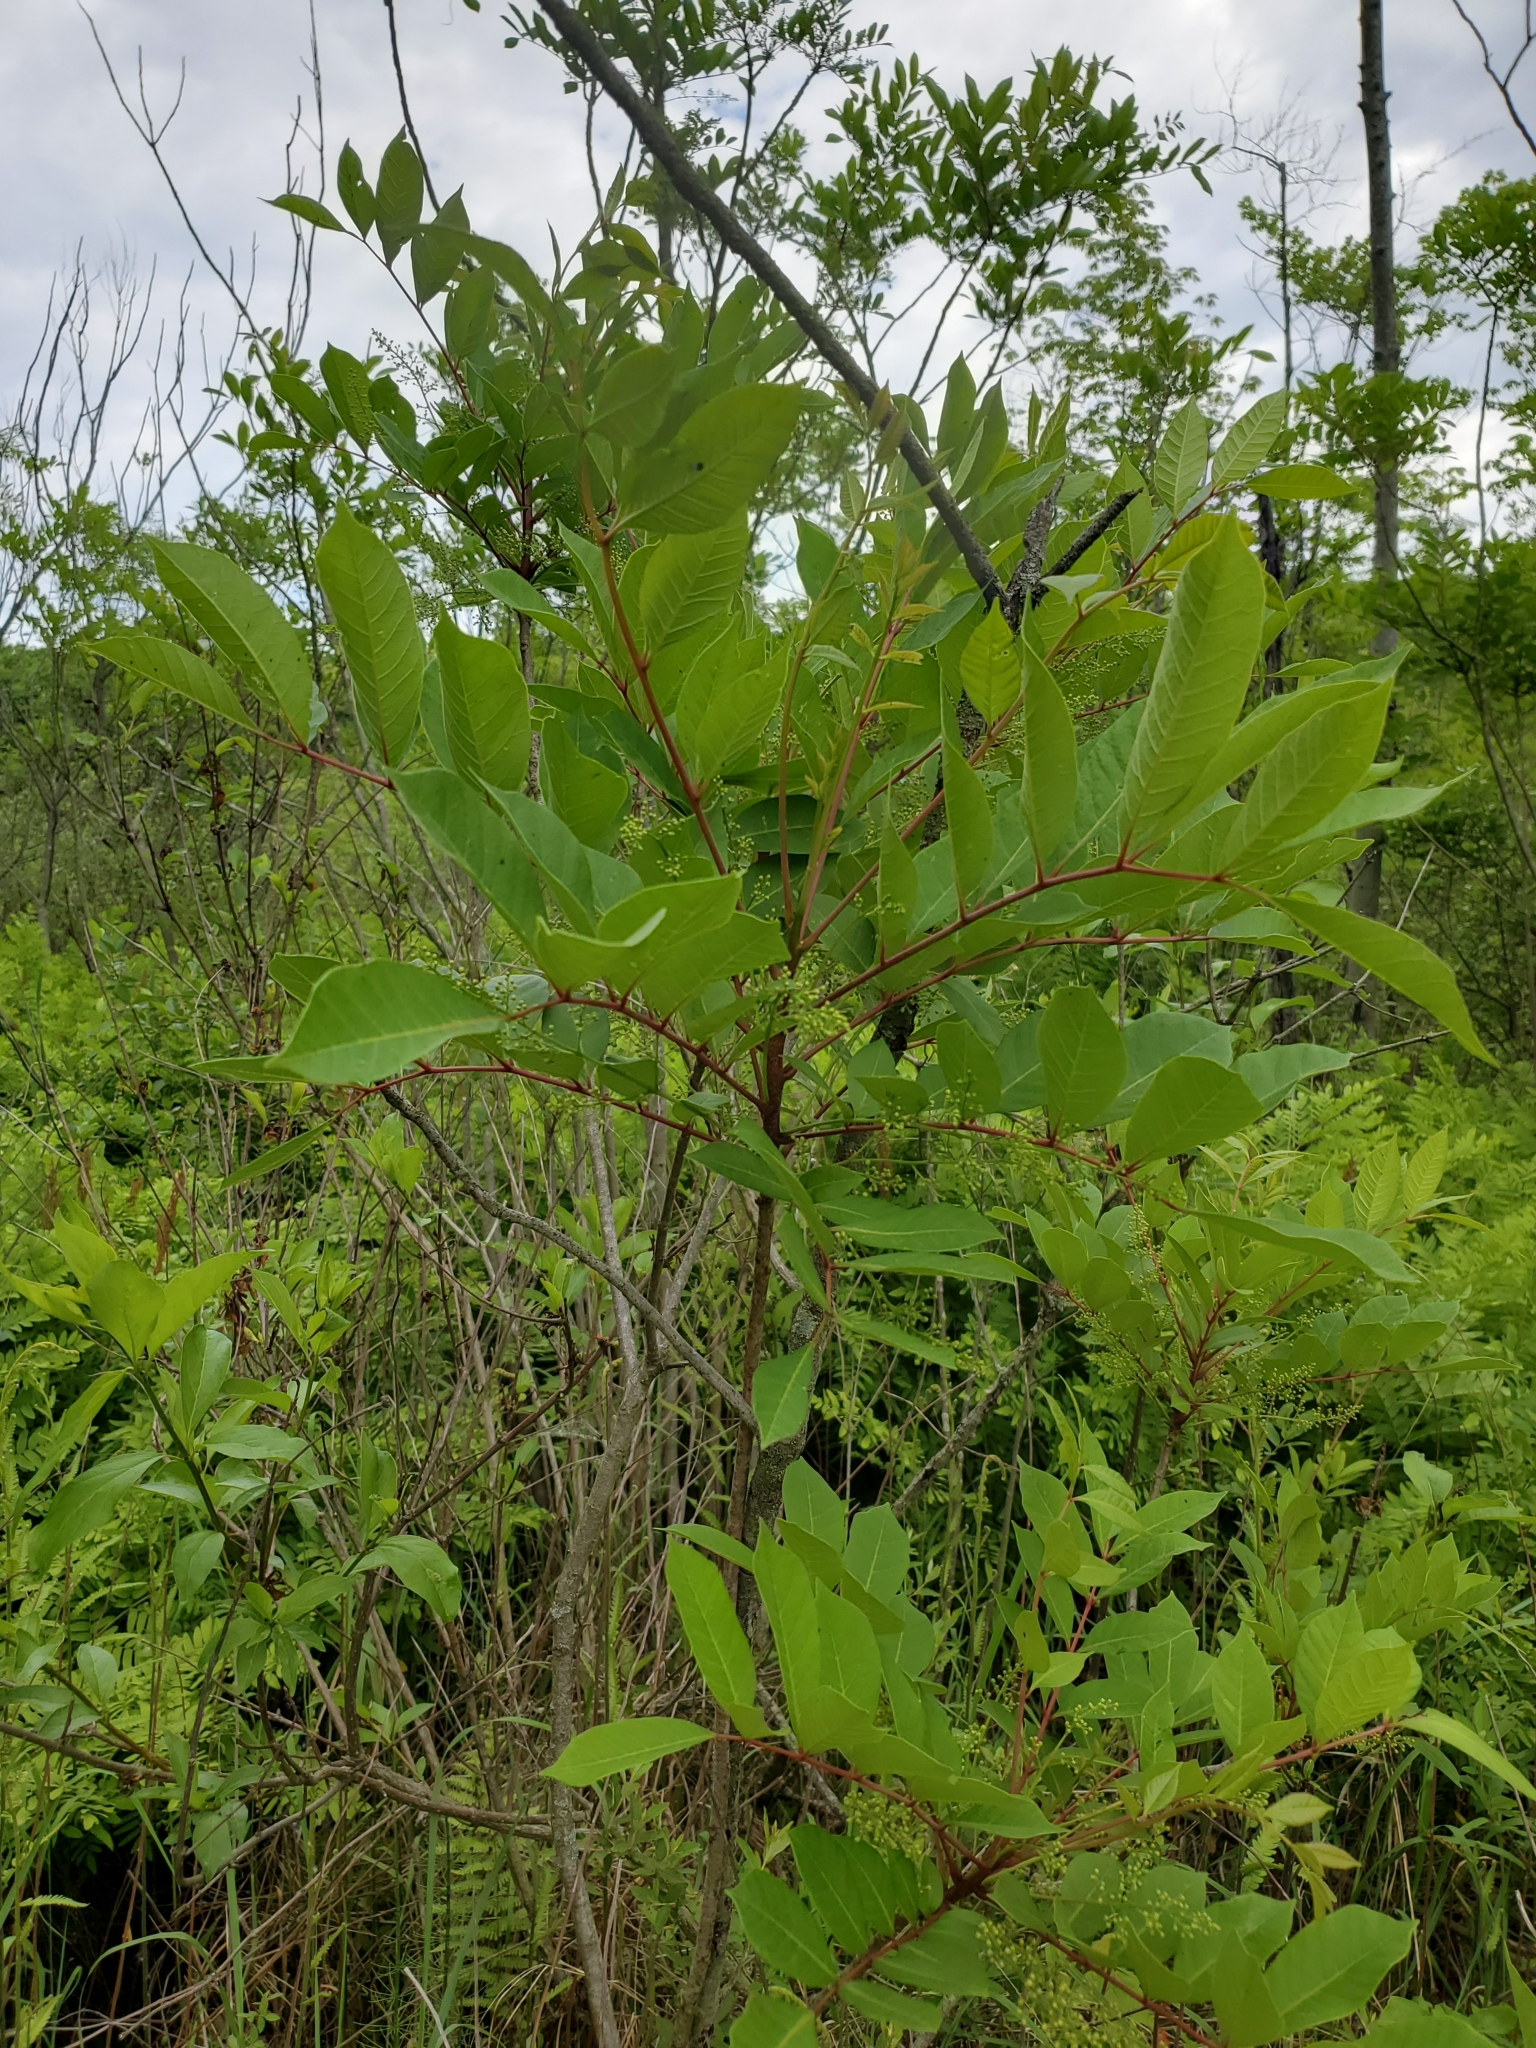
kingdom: Plantae
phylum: Tracheophyta
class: Magnoliopsida
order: Sapindales
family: Anacardiaceae
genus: Toxicodendron
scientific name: Toxicodendron vernix
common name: Poison sumac
